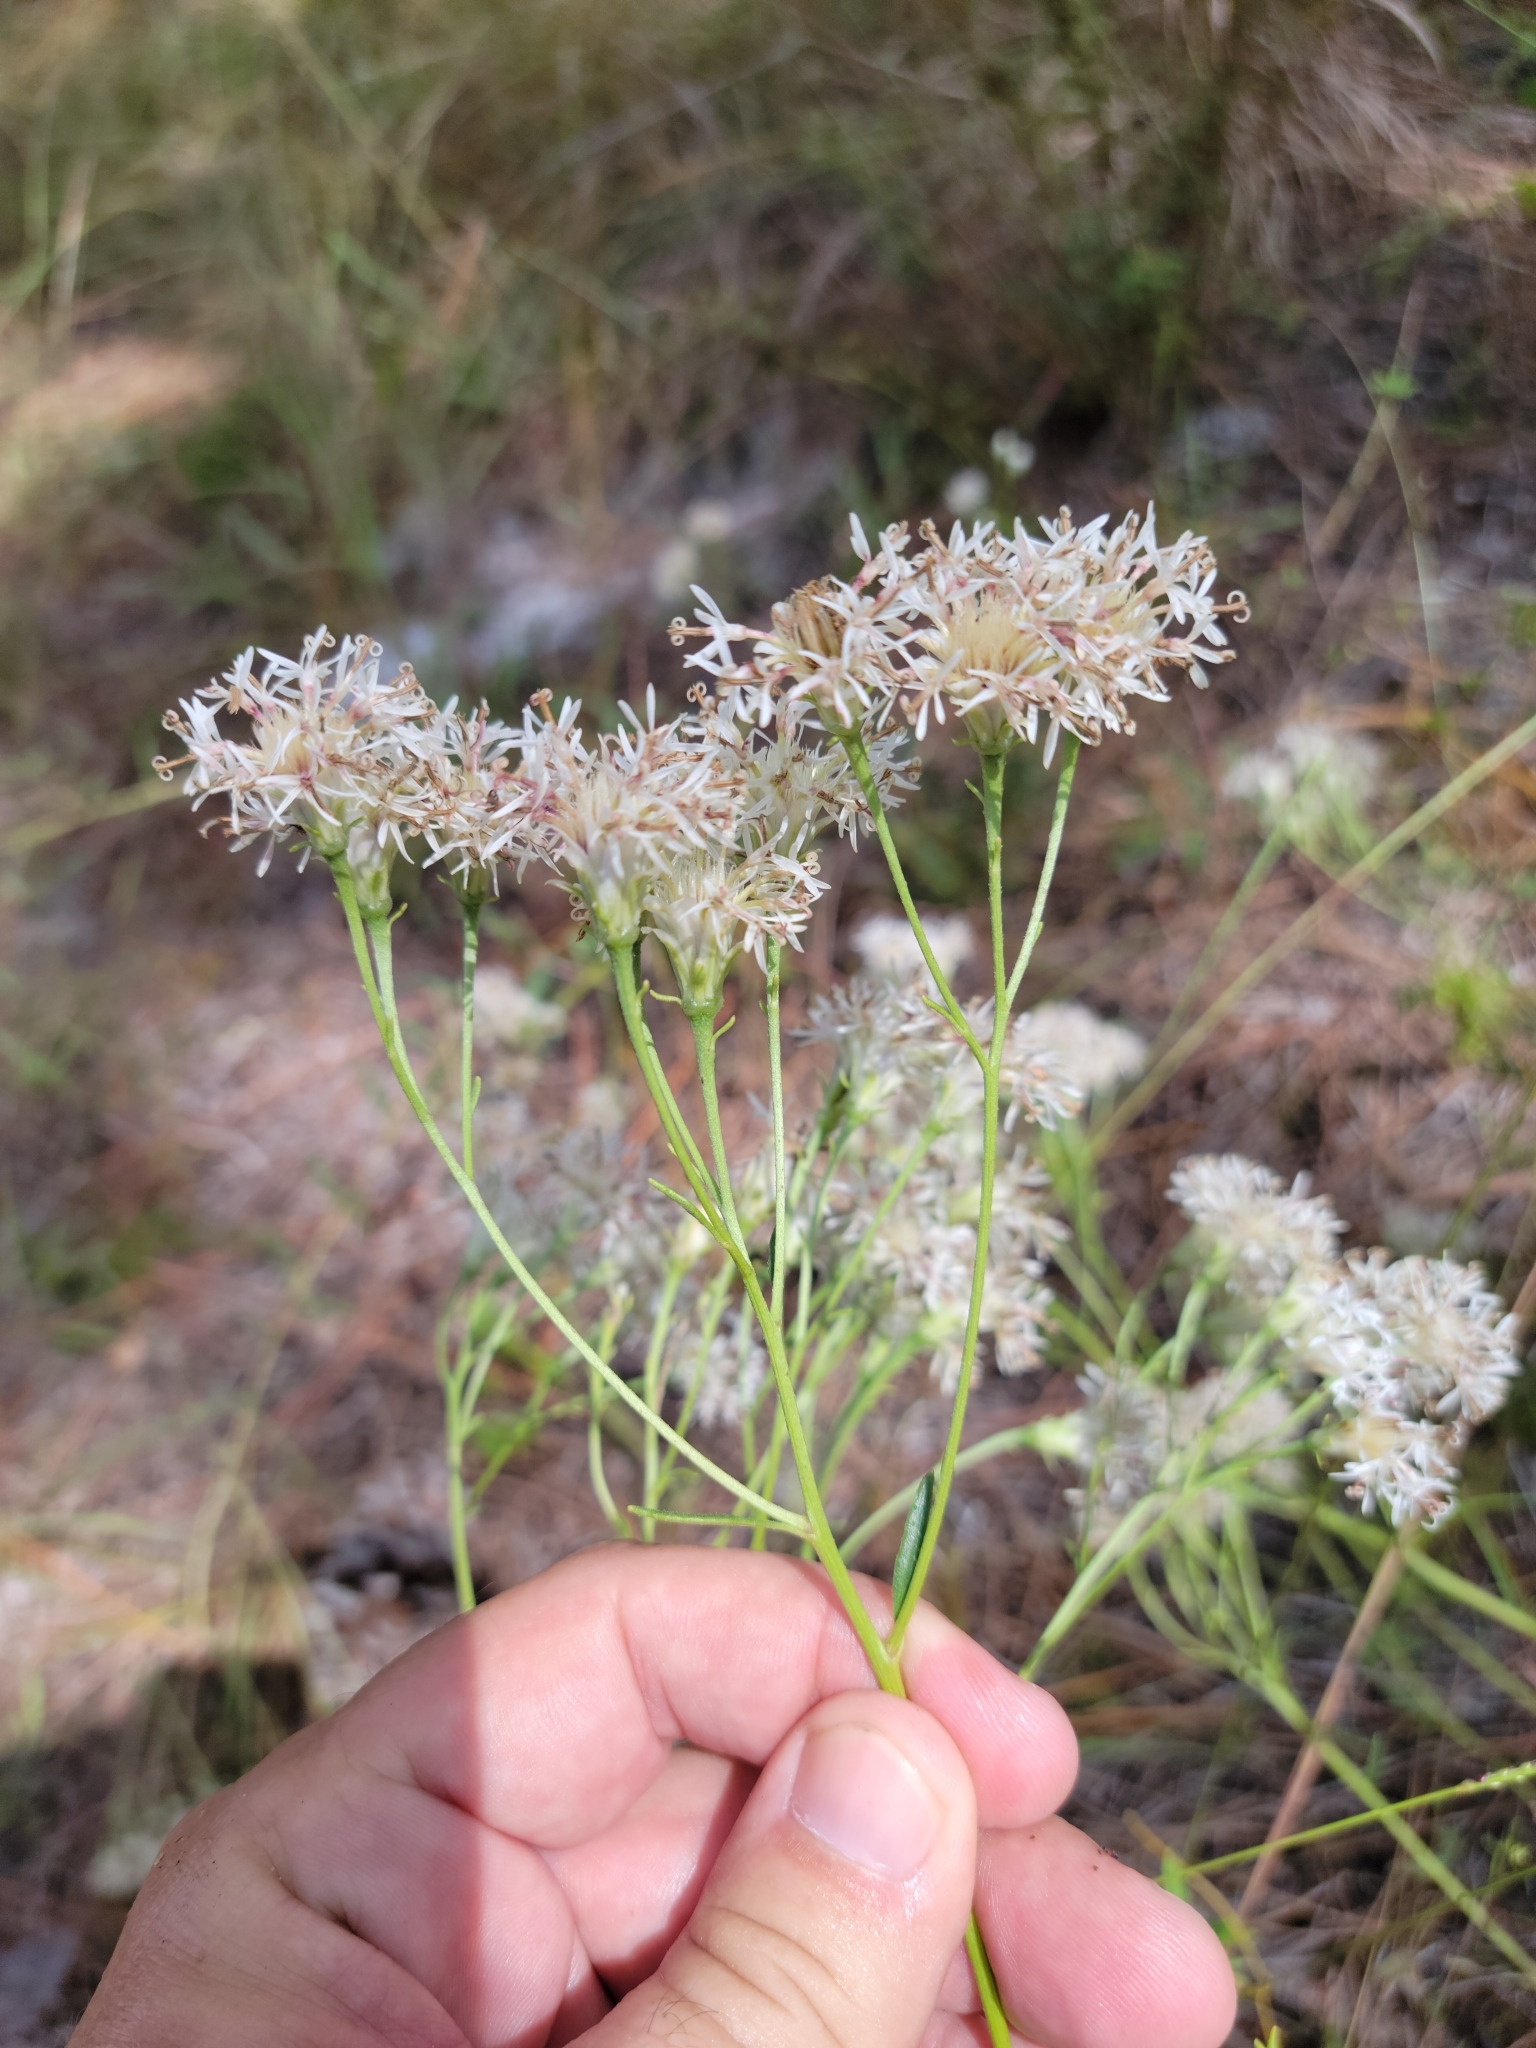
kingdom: Plantae
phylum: Tracheophyta
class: Magnoliopsida
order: Asterales
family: Asteraceae
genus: Palafoxia
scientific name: Palafoxia integrifolia
